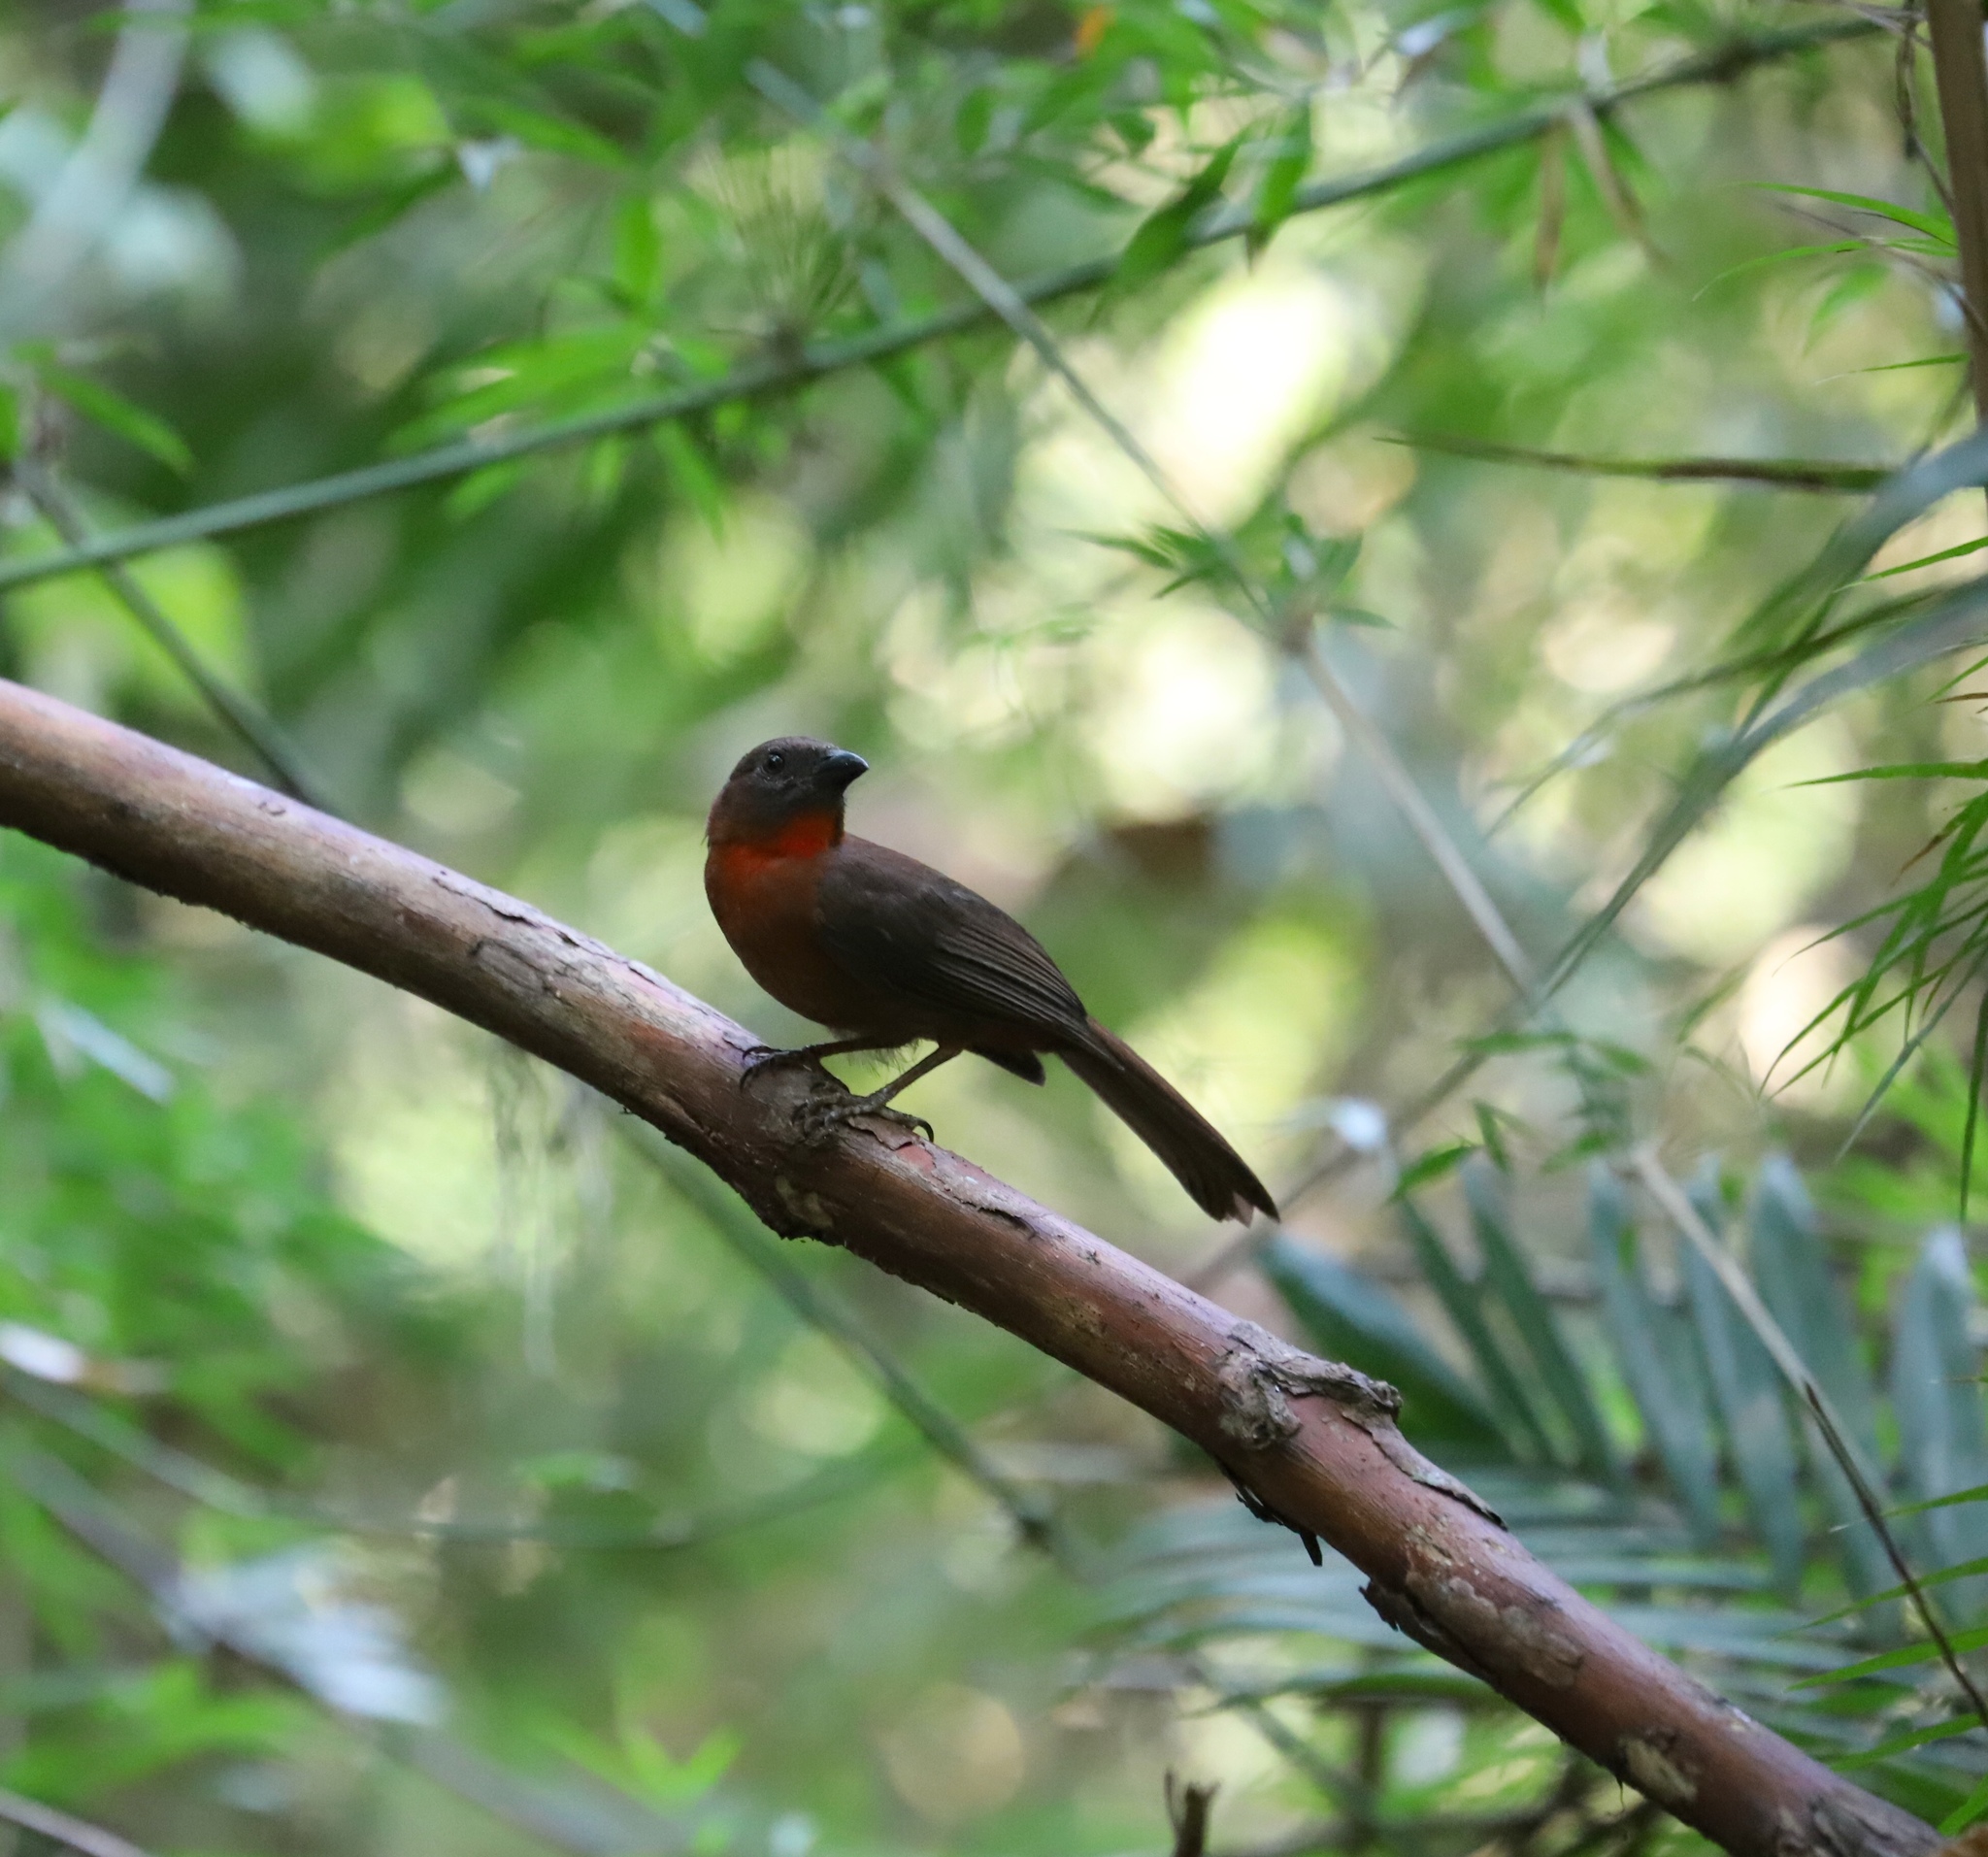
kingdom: Animalia
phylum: Chordata
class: Aves
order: Passeriformes
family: Cardinalidae
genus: Habia
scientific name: Habia fuscicauda
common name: Red-throated ant-tanager
